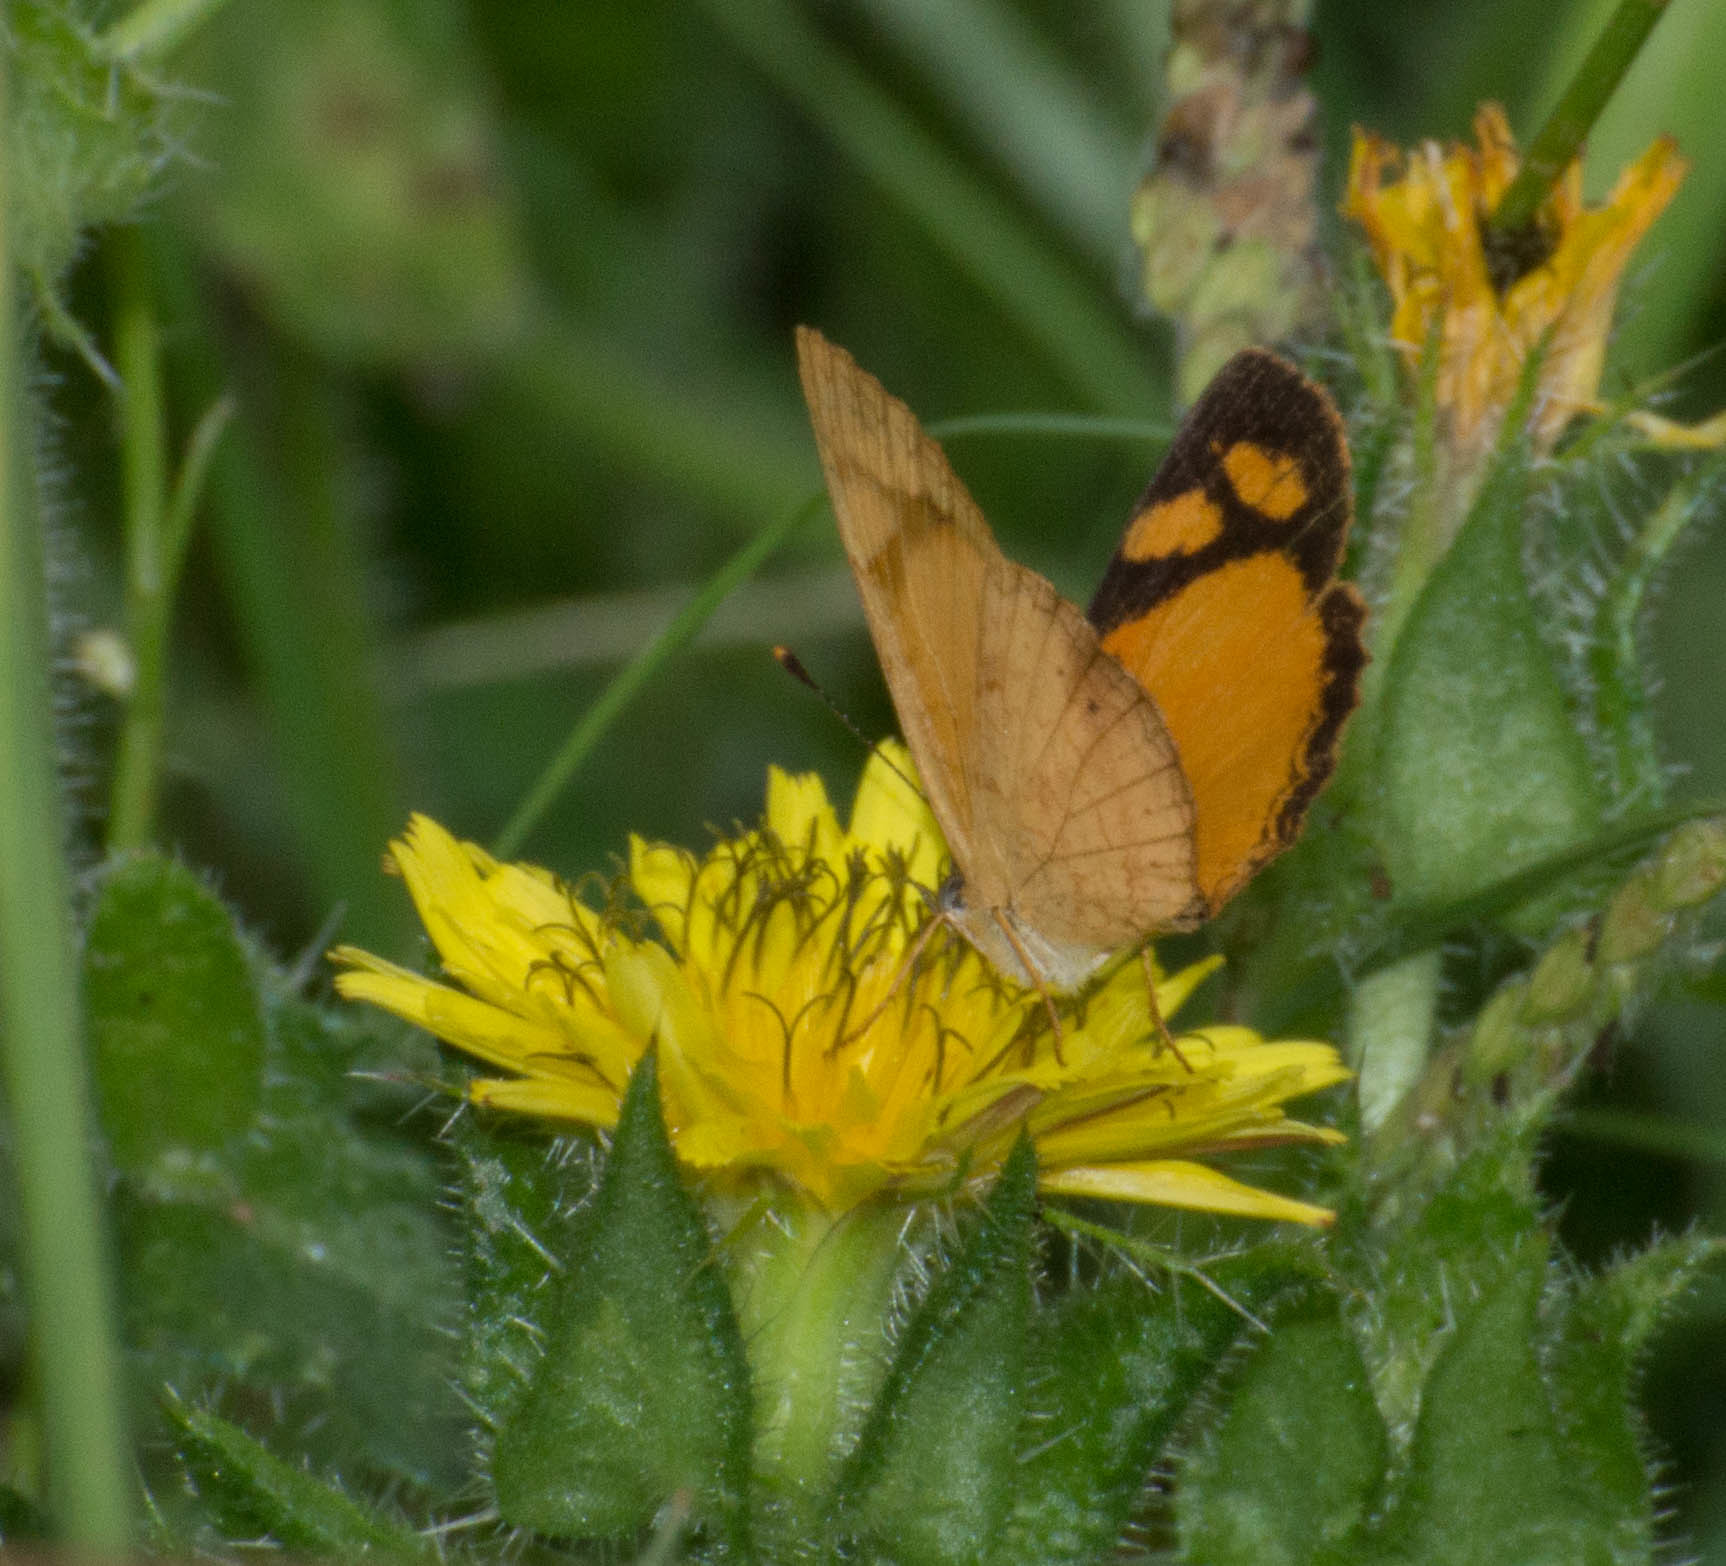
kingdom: Animalia
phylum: Arthropoda
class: Insecta
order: Lepidoptera
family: Nymphalidae
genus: Tegosa
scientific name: Tegosa claudina
